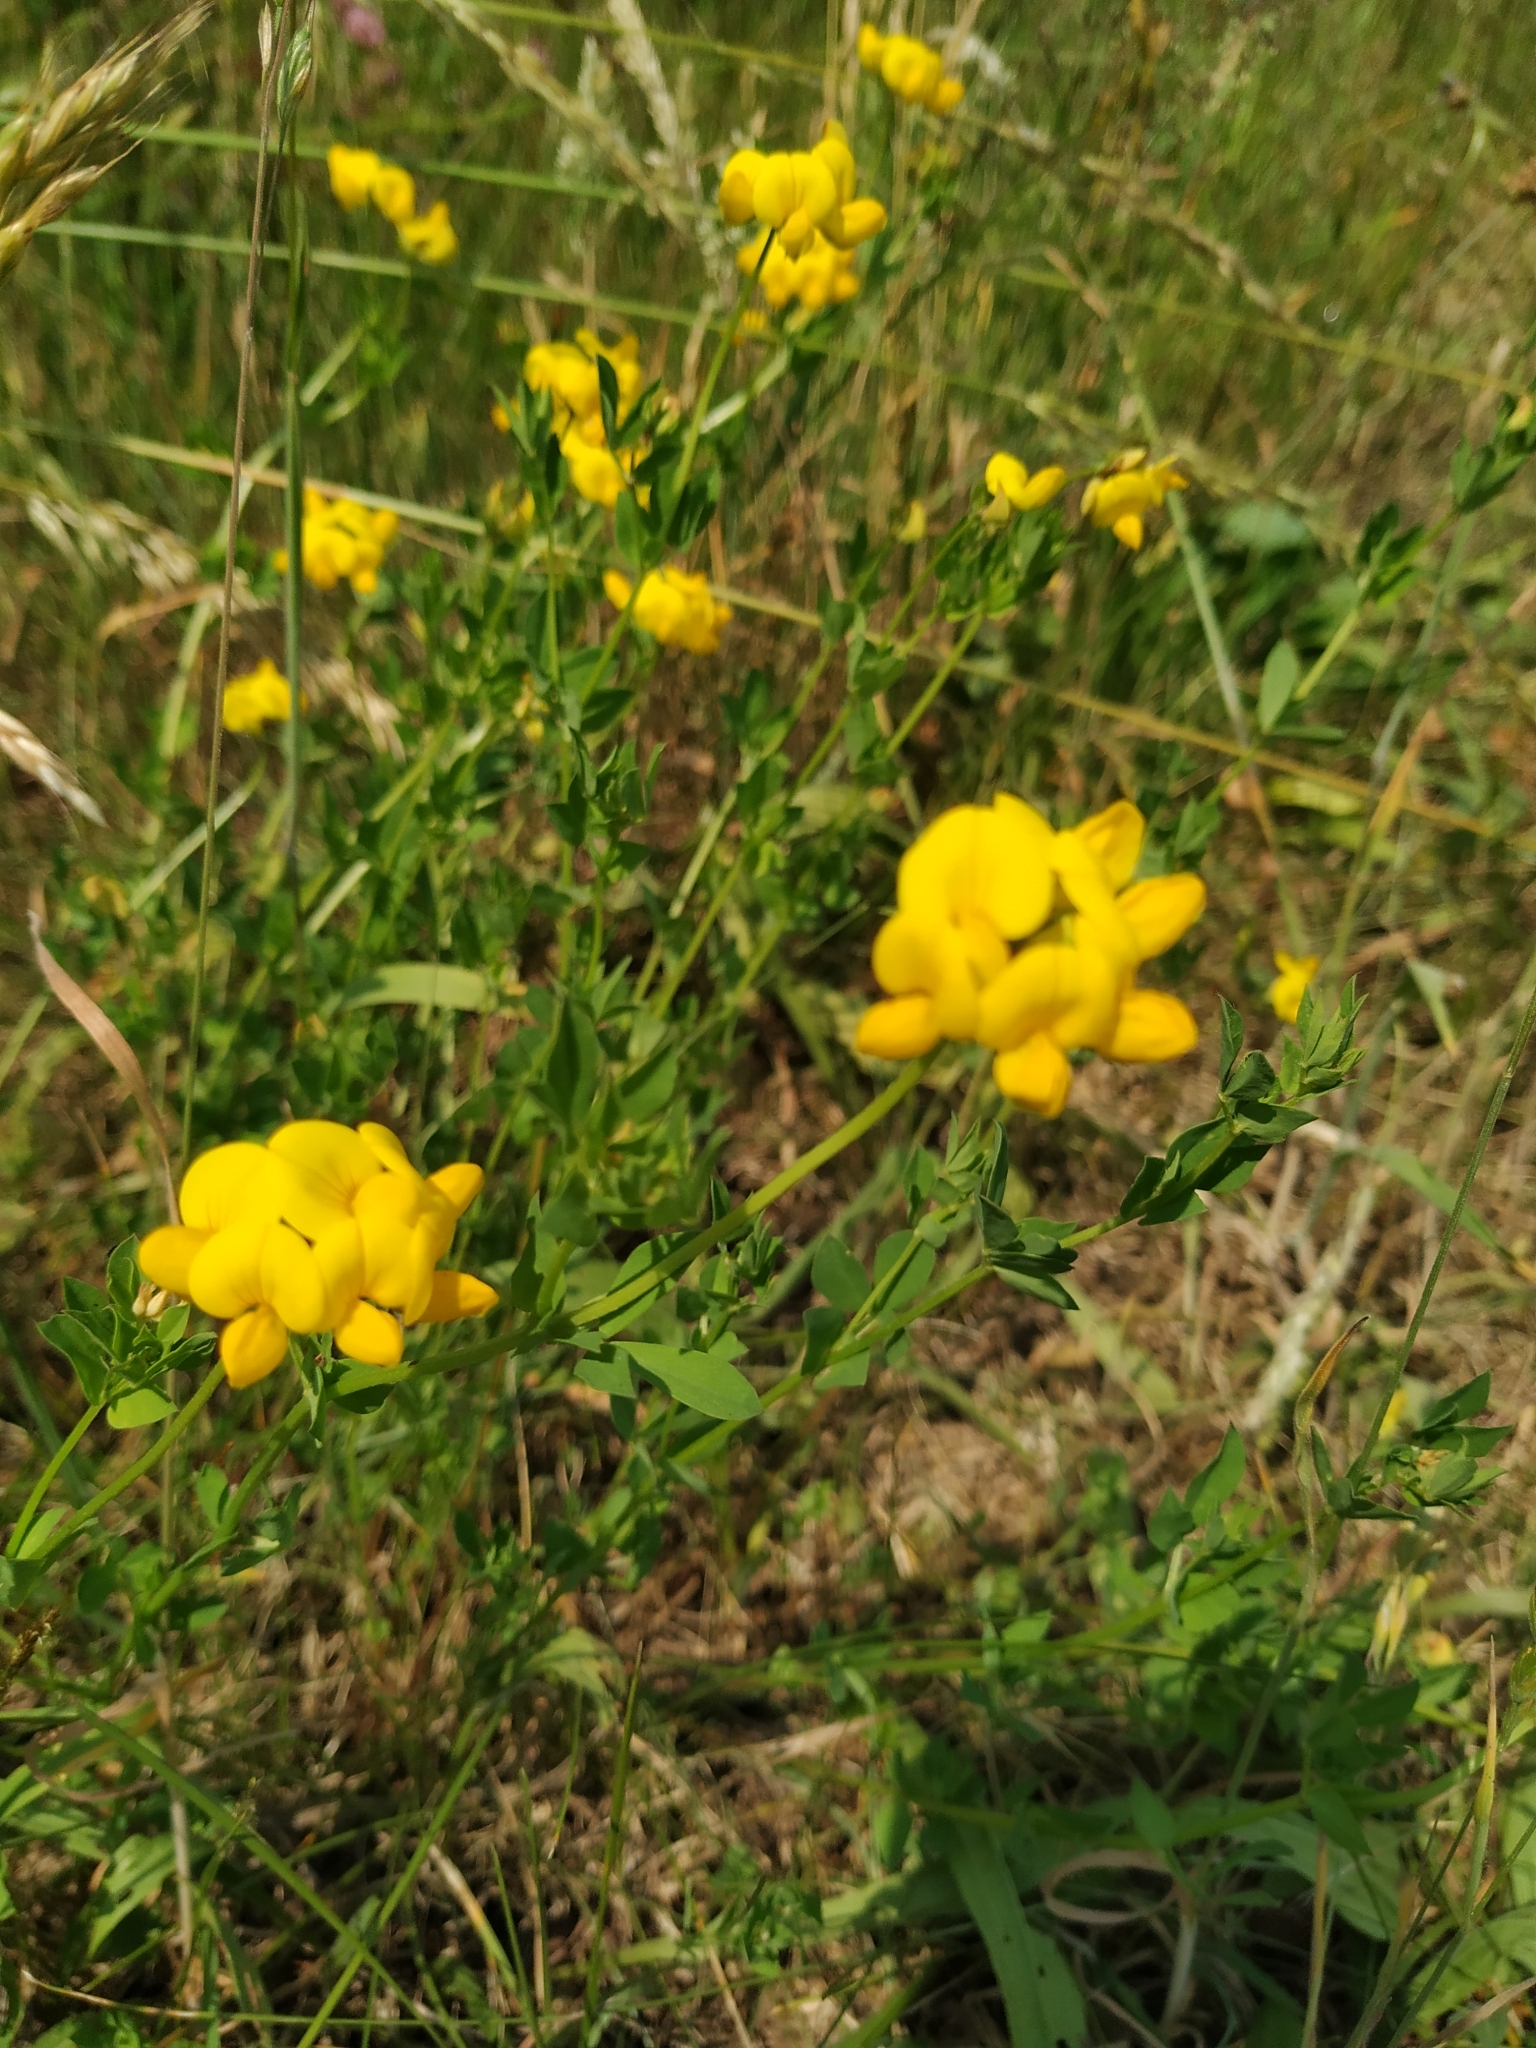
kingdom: Plantae
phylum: Tracheophyta
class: Magnoliopsida
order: Fabales
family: Fabaceae
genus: Lotus
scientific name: Lotus corniculatus
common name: Common bird's-foot-trefoil
